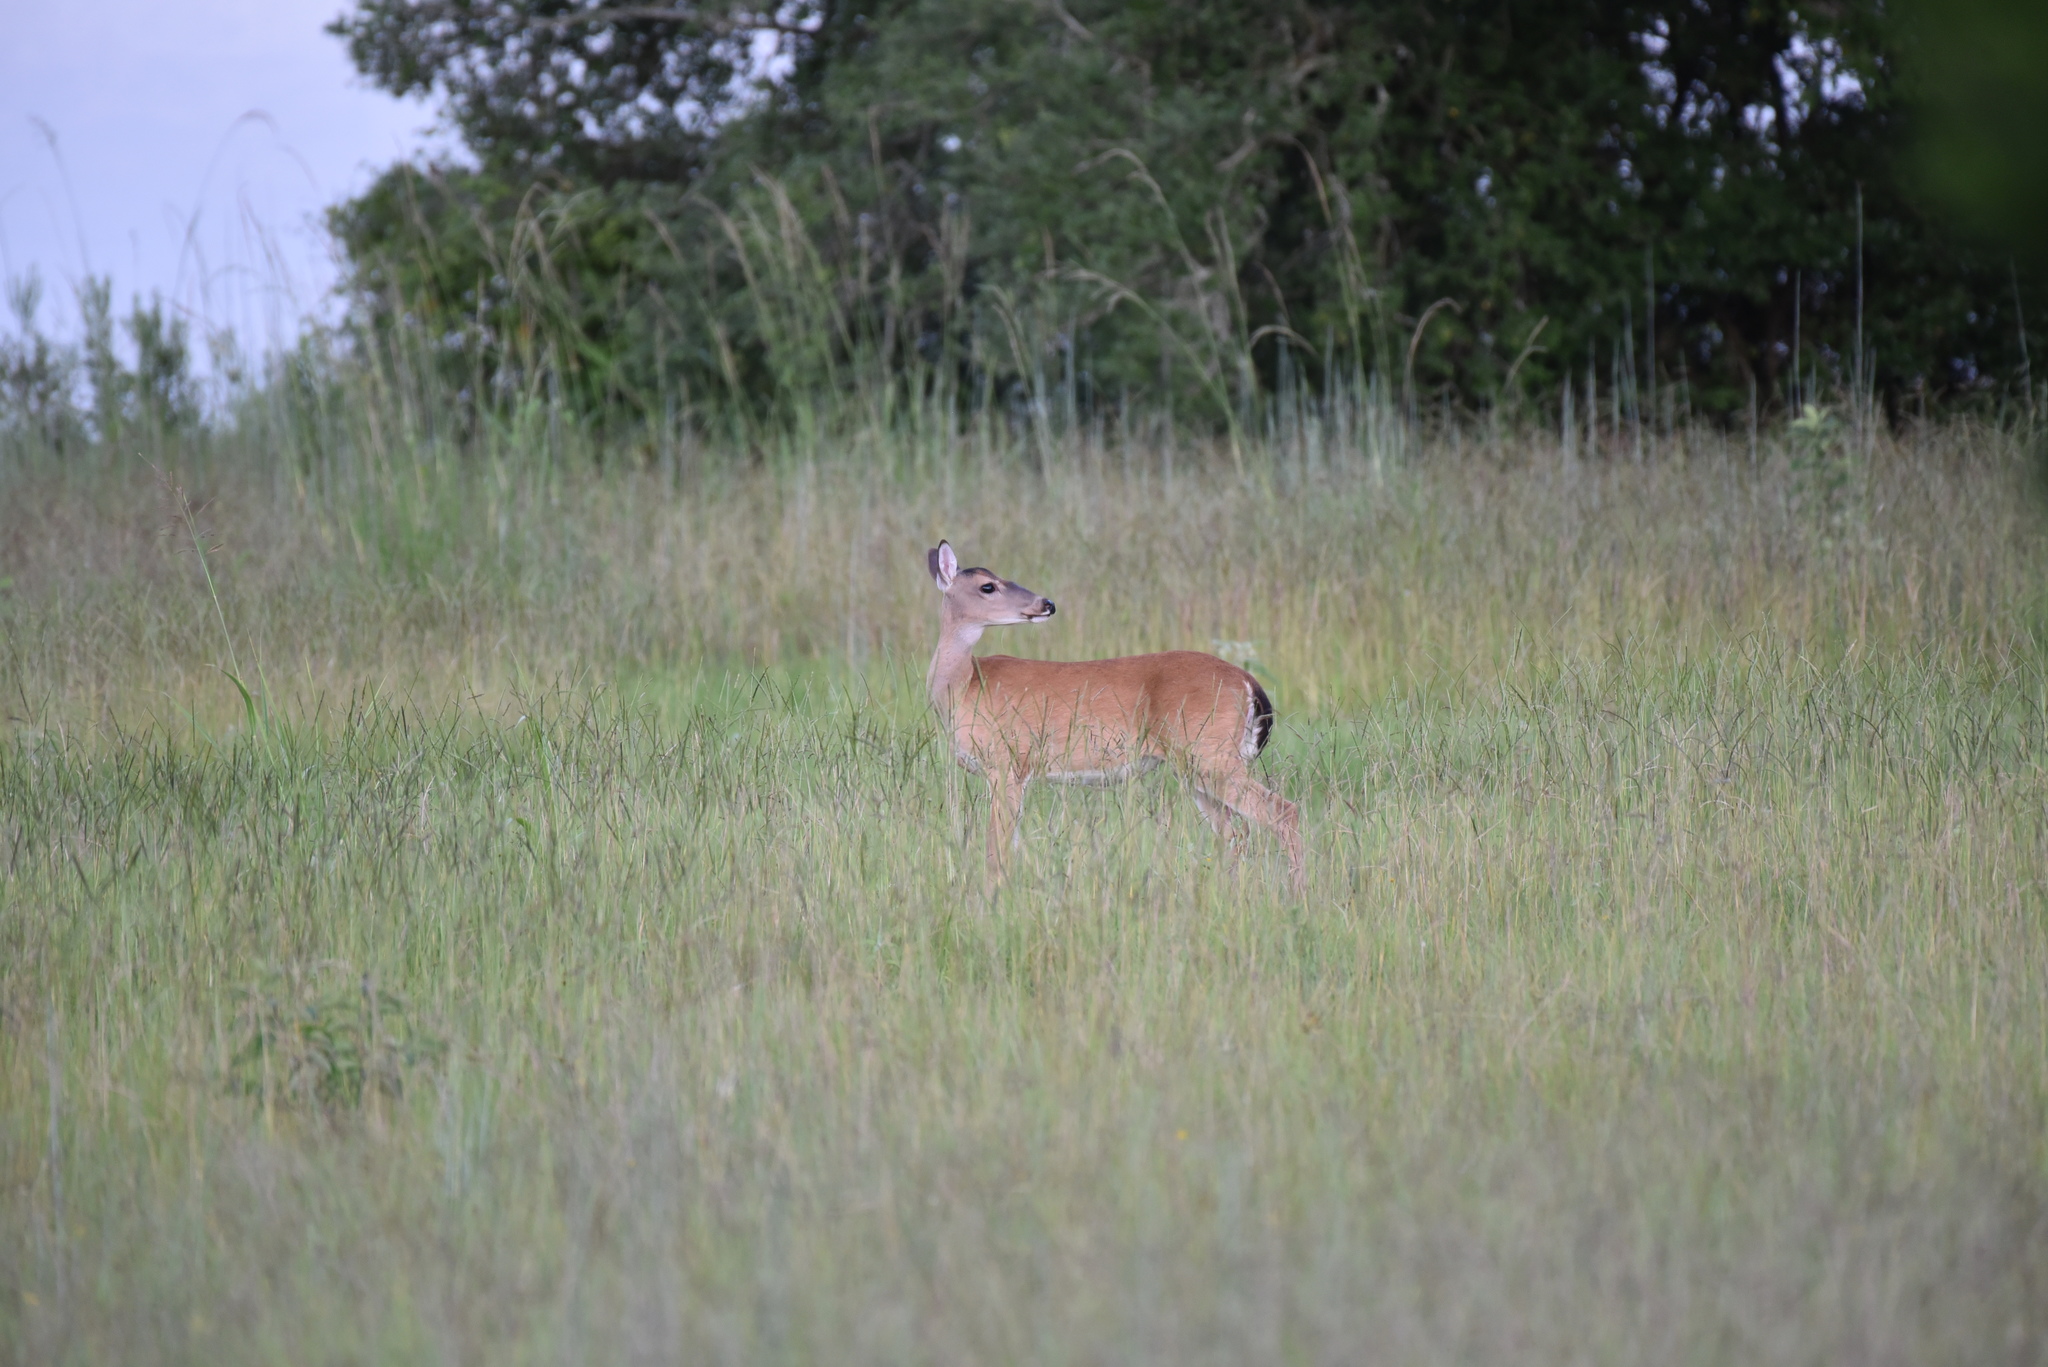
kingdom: Animalia
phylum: Chordata
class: Mammalia
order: Artiodactyla
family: Cervidae
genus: Odocoileus
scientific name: Odocoileus virginianus
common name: White-tailed deer
